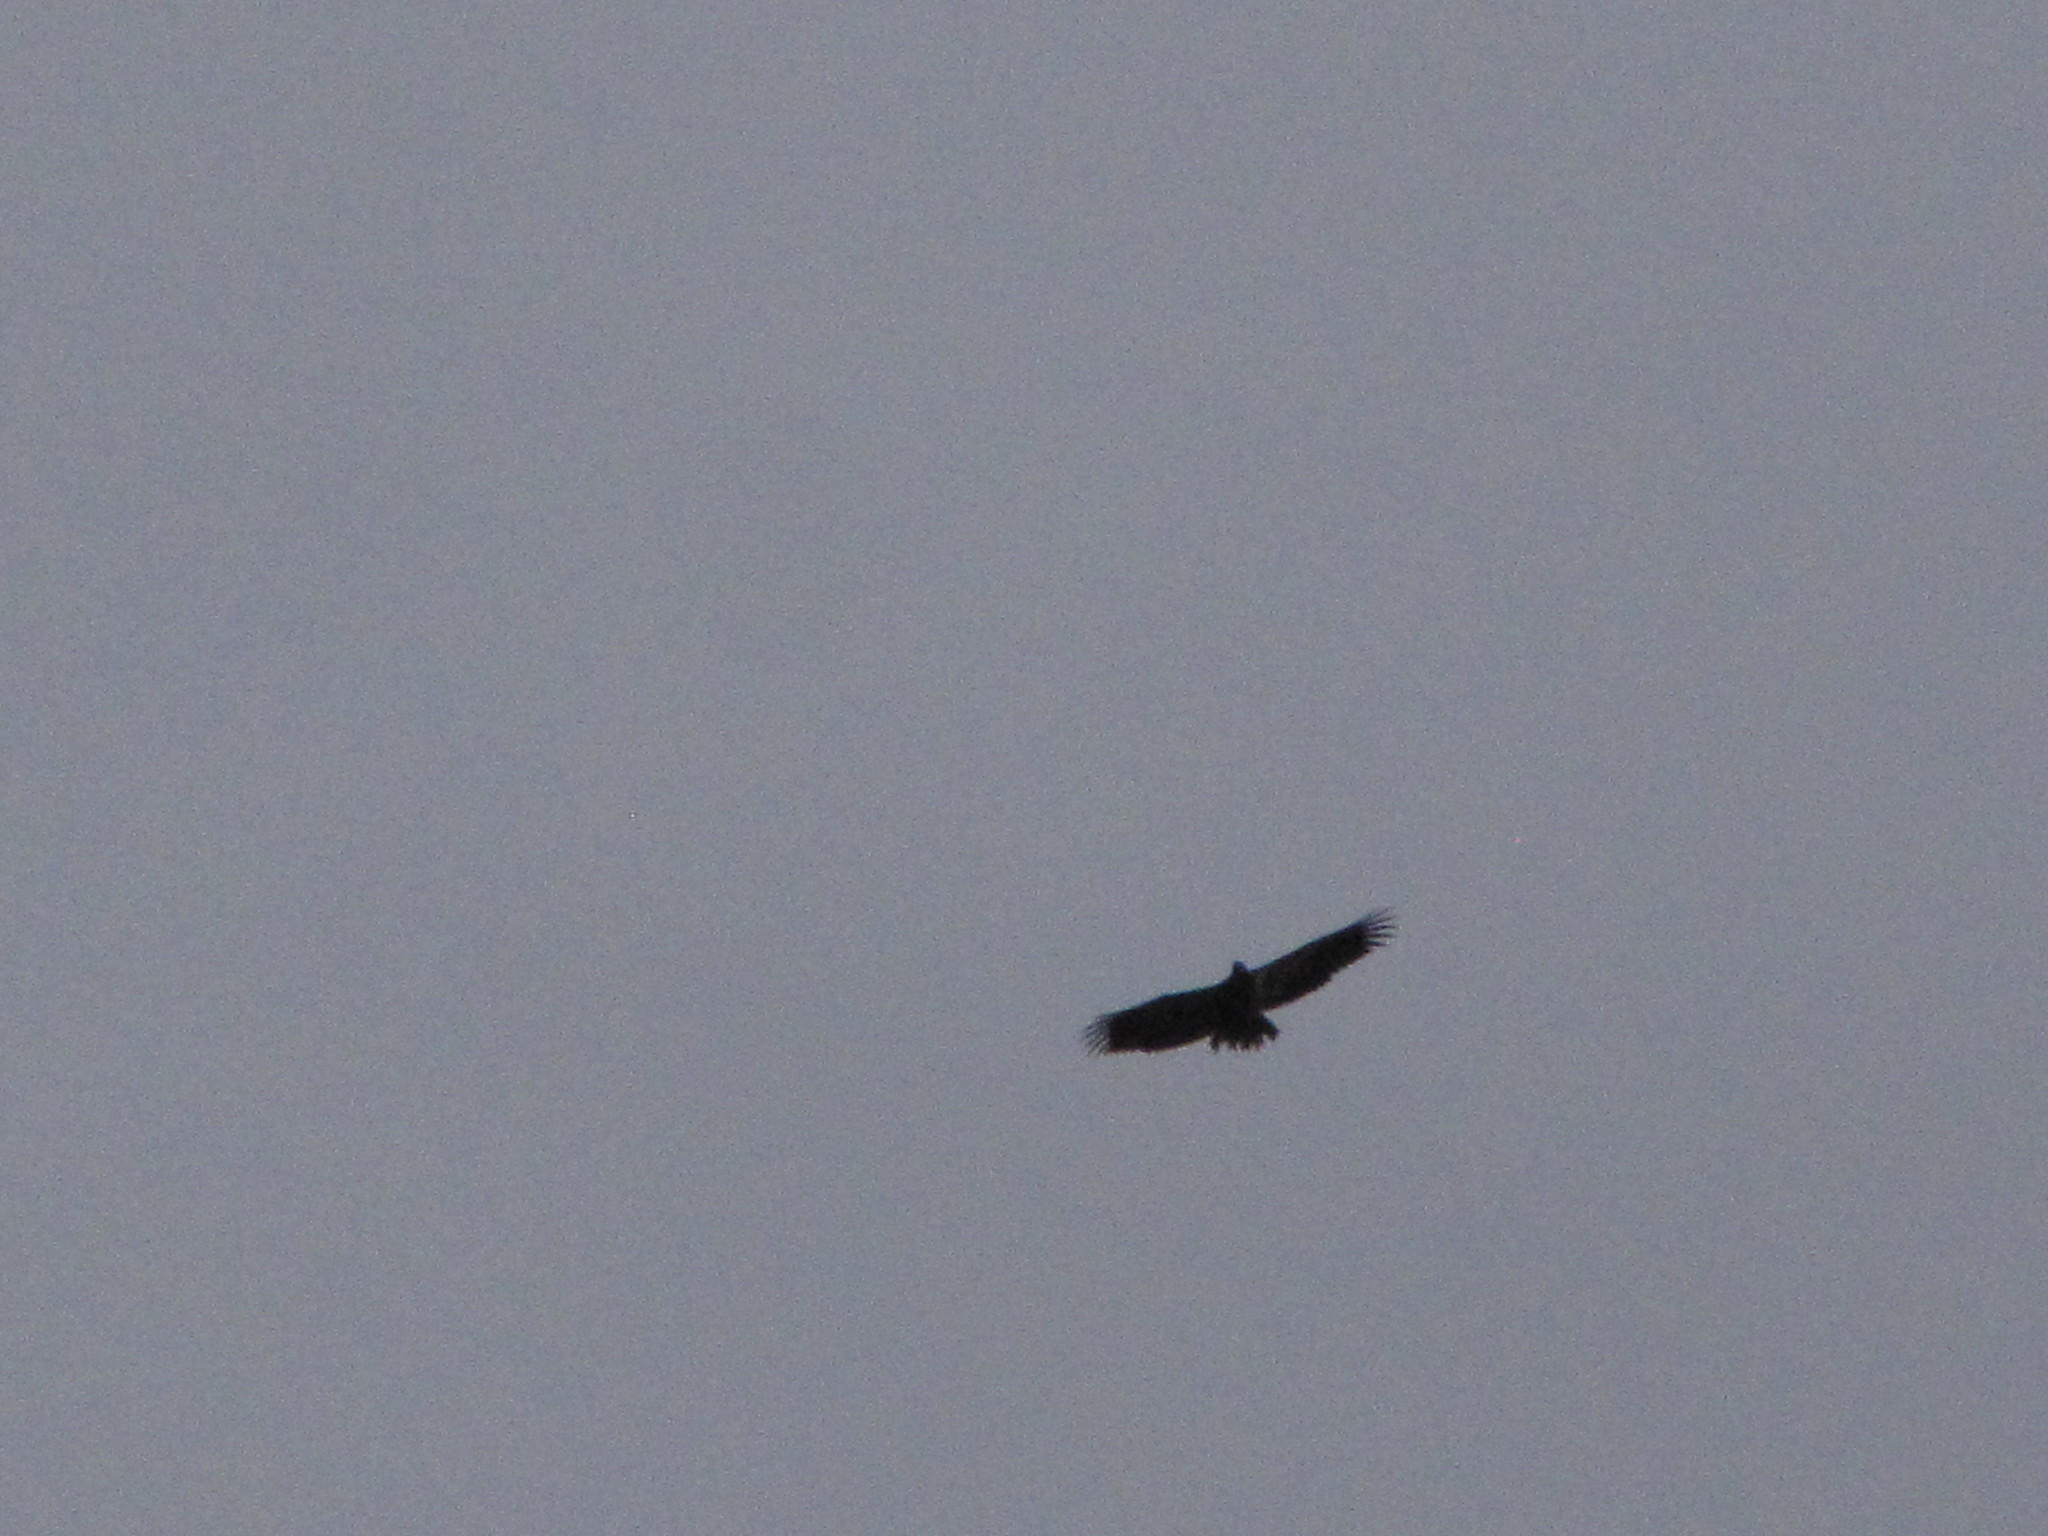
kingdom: Animalia
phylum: Chordata
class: Aves
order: Accipitriformes
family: Accipitridae
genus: Haliaeetus
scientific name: Haliaeetus leucocephalus
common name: Bald eagle
